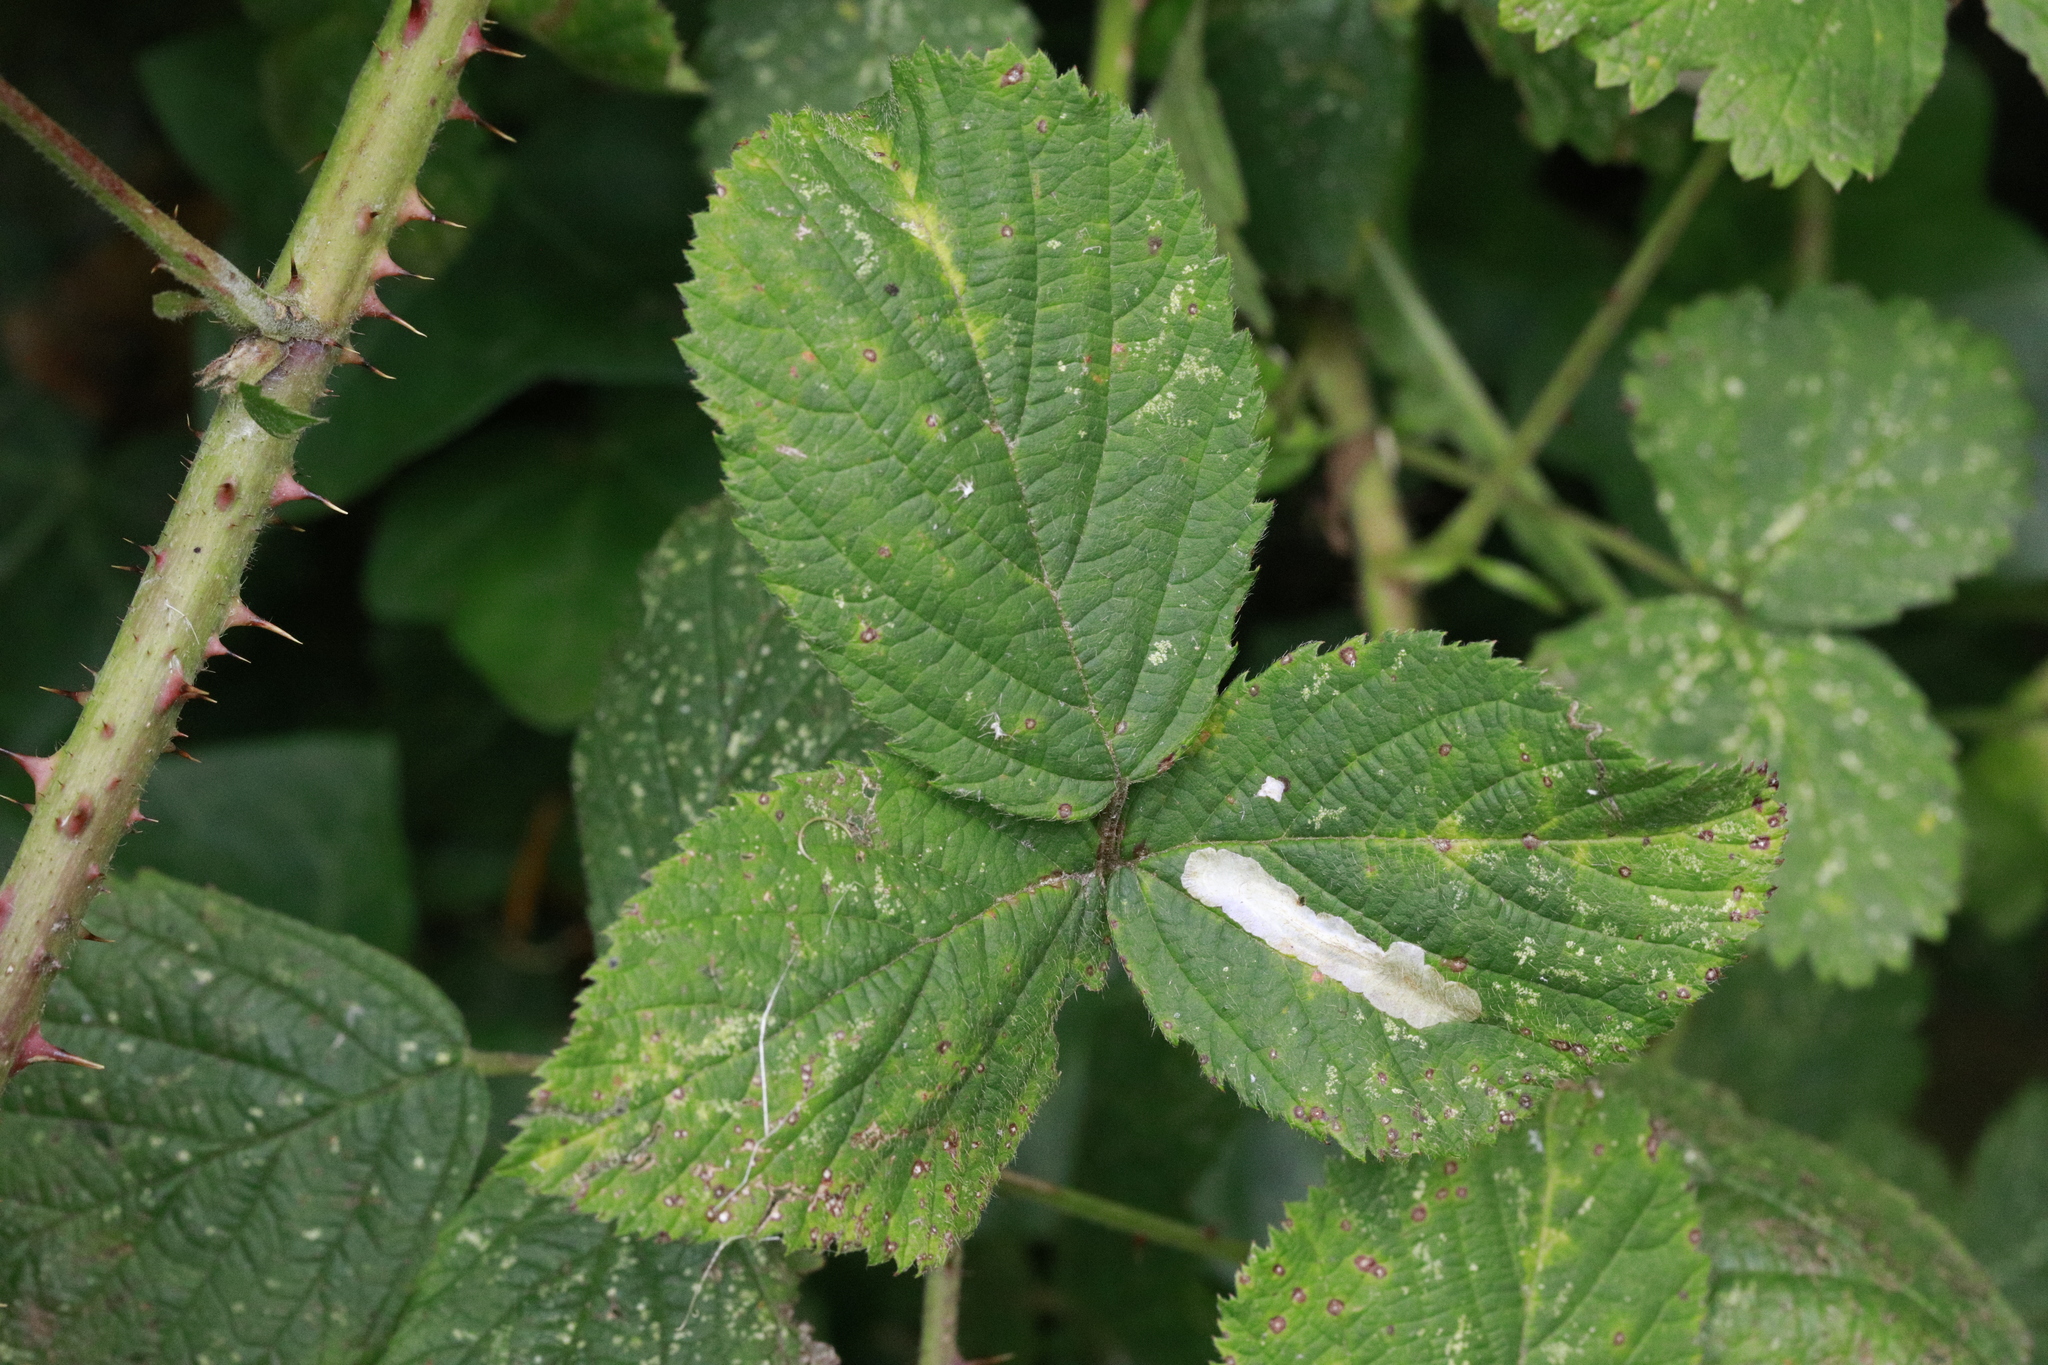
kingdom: Animalia
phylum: Arthropoda
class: Insecta
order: Lepidoptera
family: Tischeriidae
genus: Coptotriche
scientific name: Coptotriche marginea
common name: Bordered carl
